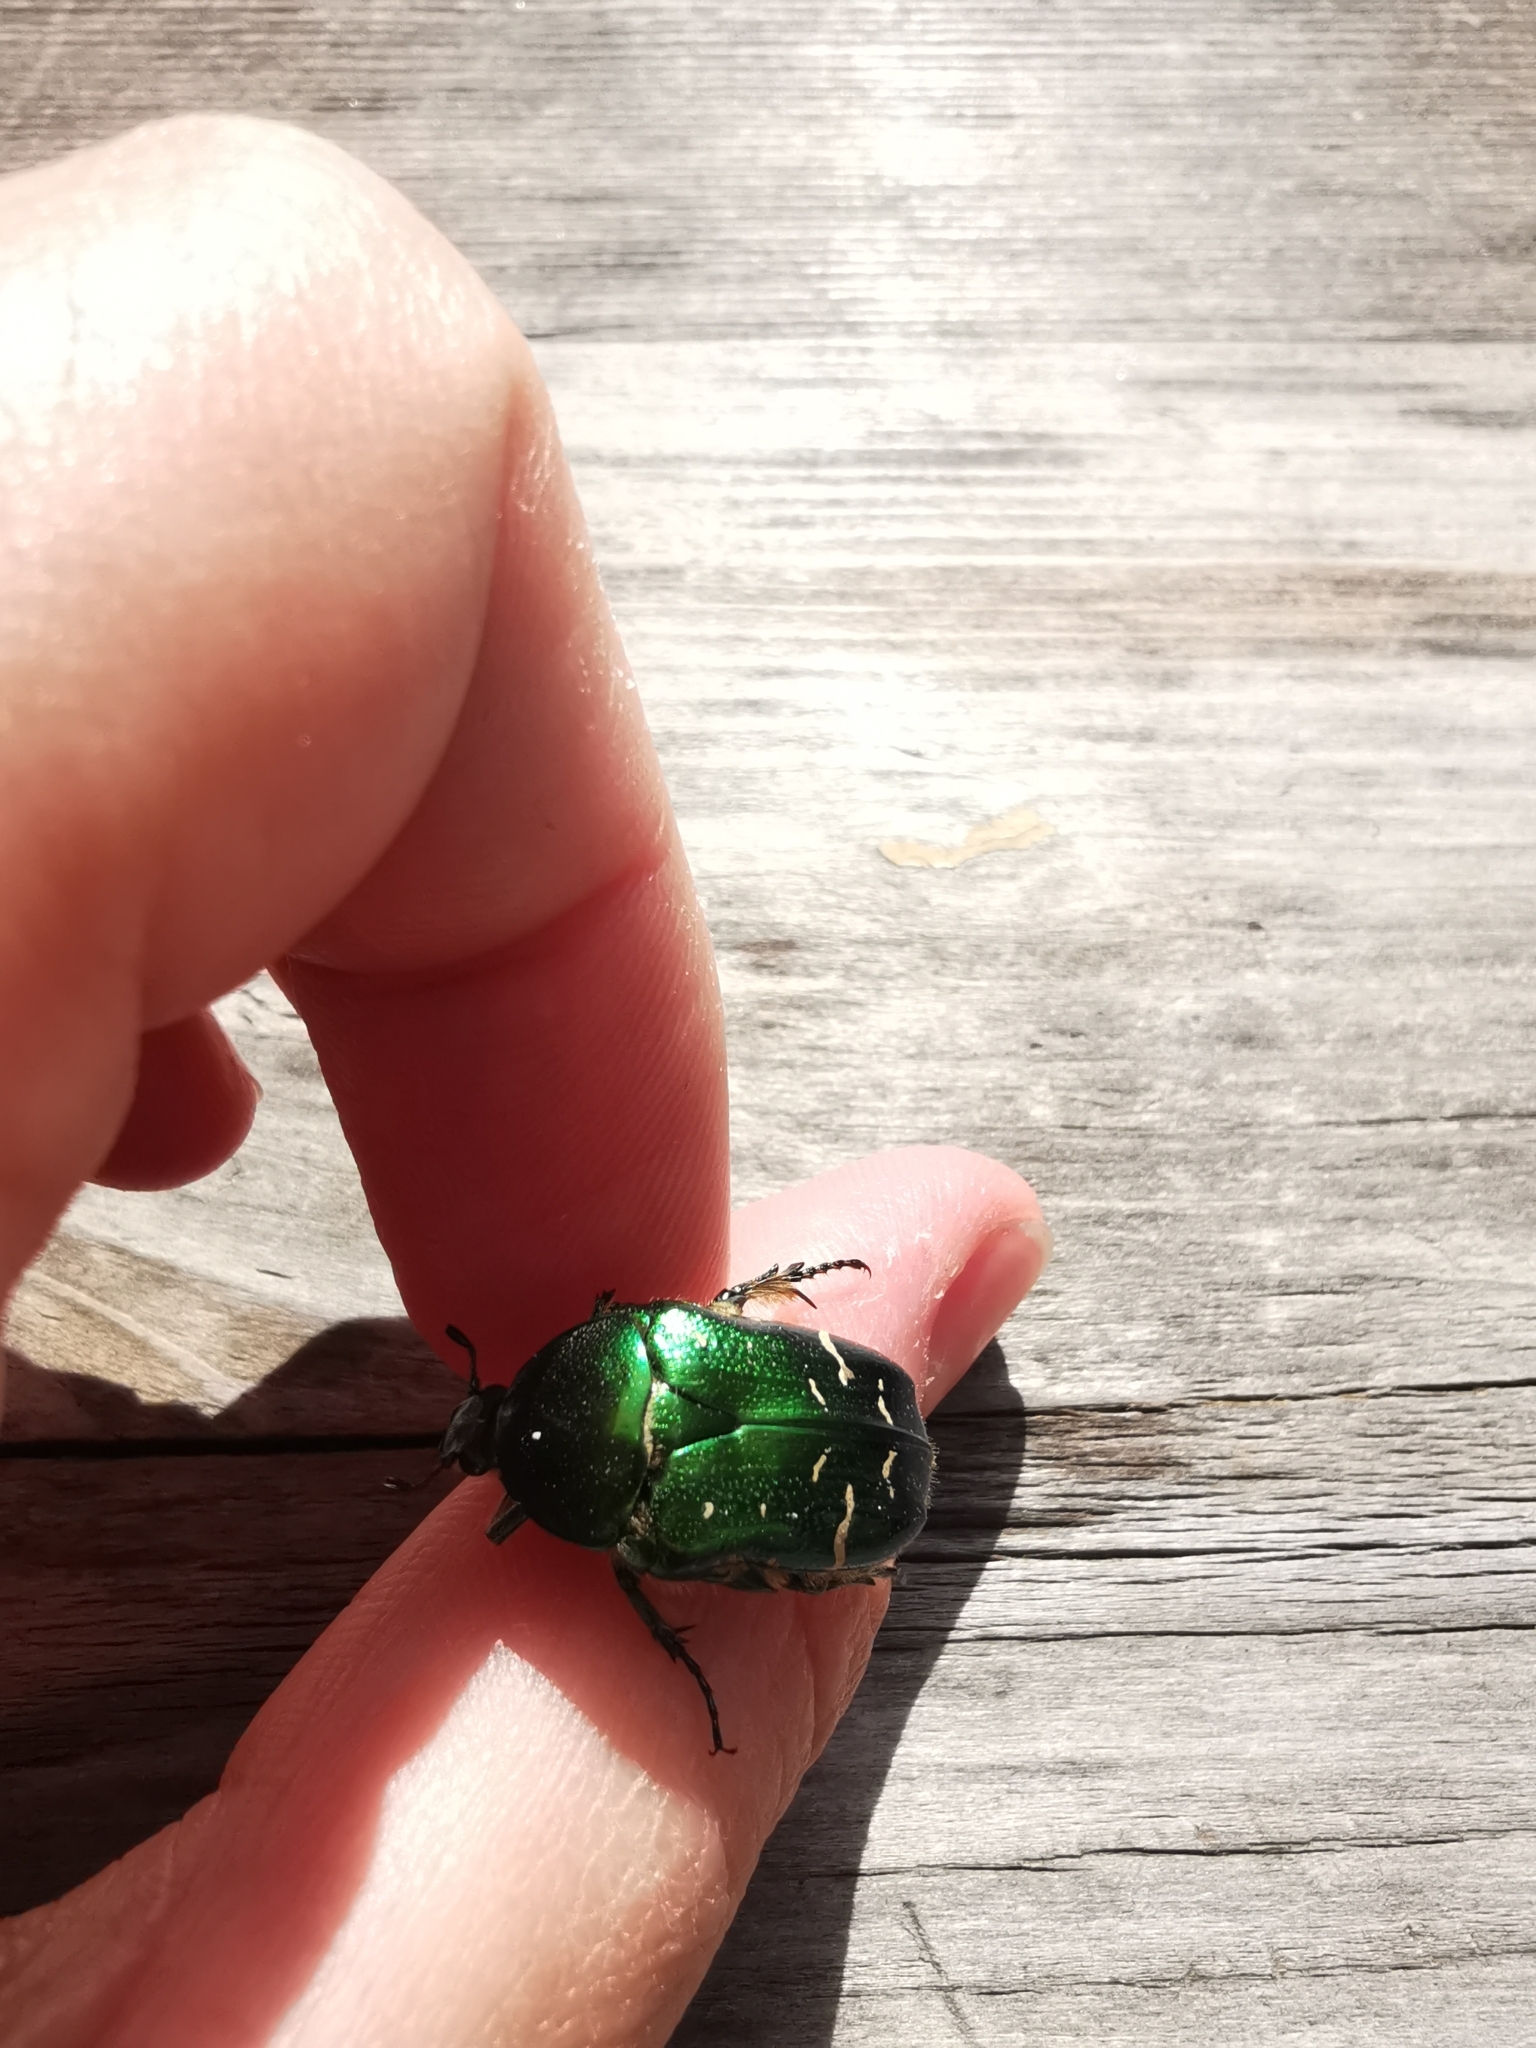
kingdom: Animalia
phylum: Arthropoda
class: Insecta
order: Coleoptera
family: Scarabaeidae
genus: Cetonia
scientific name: Cetonia aurata
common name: Rose chafer
